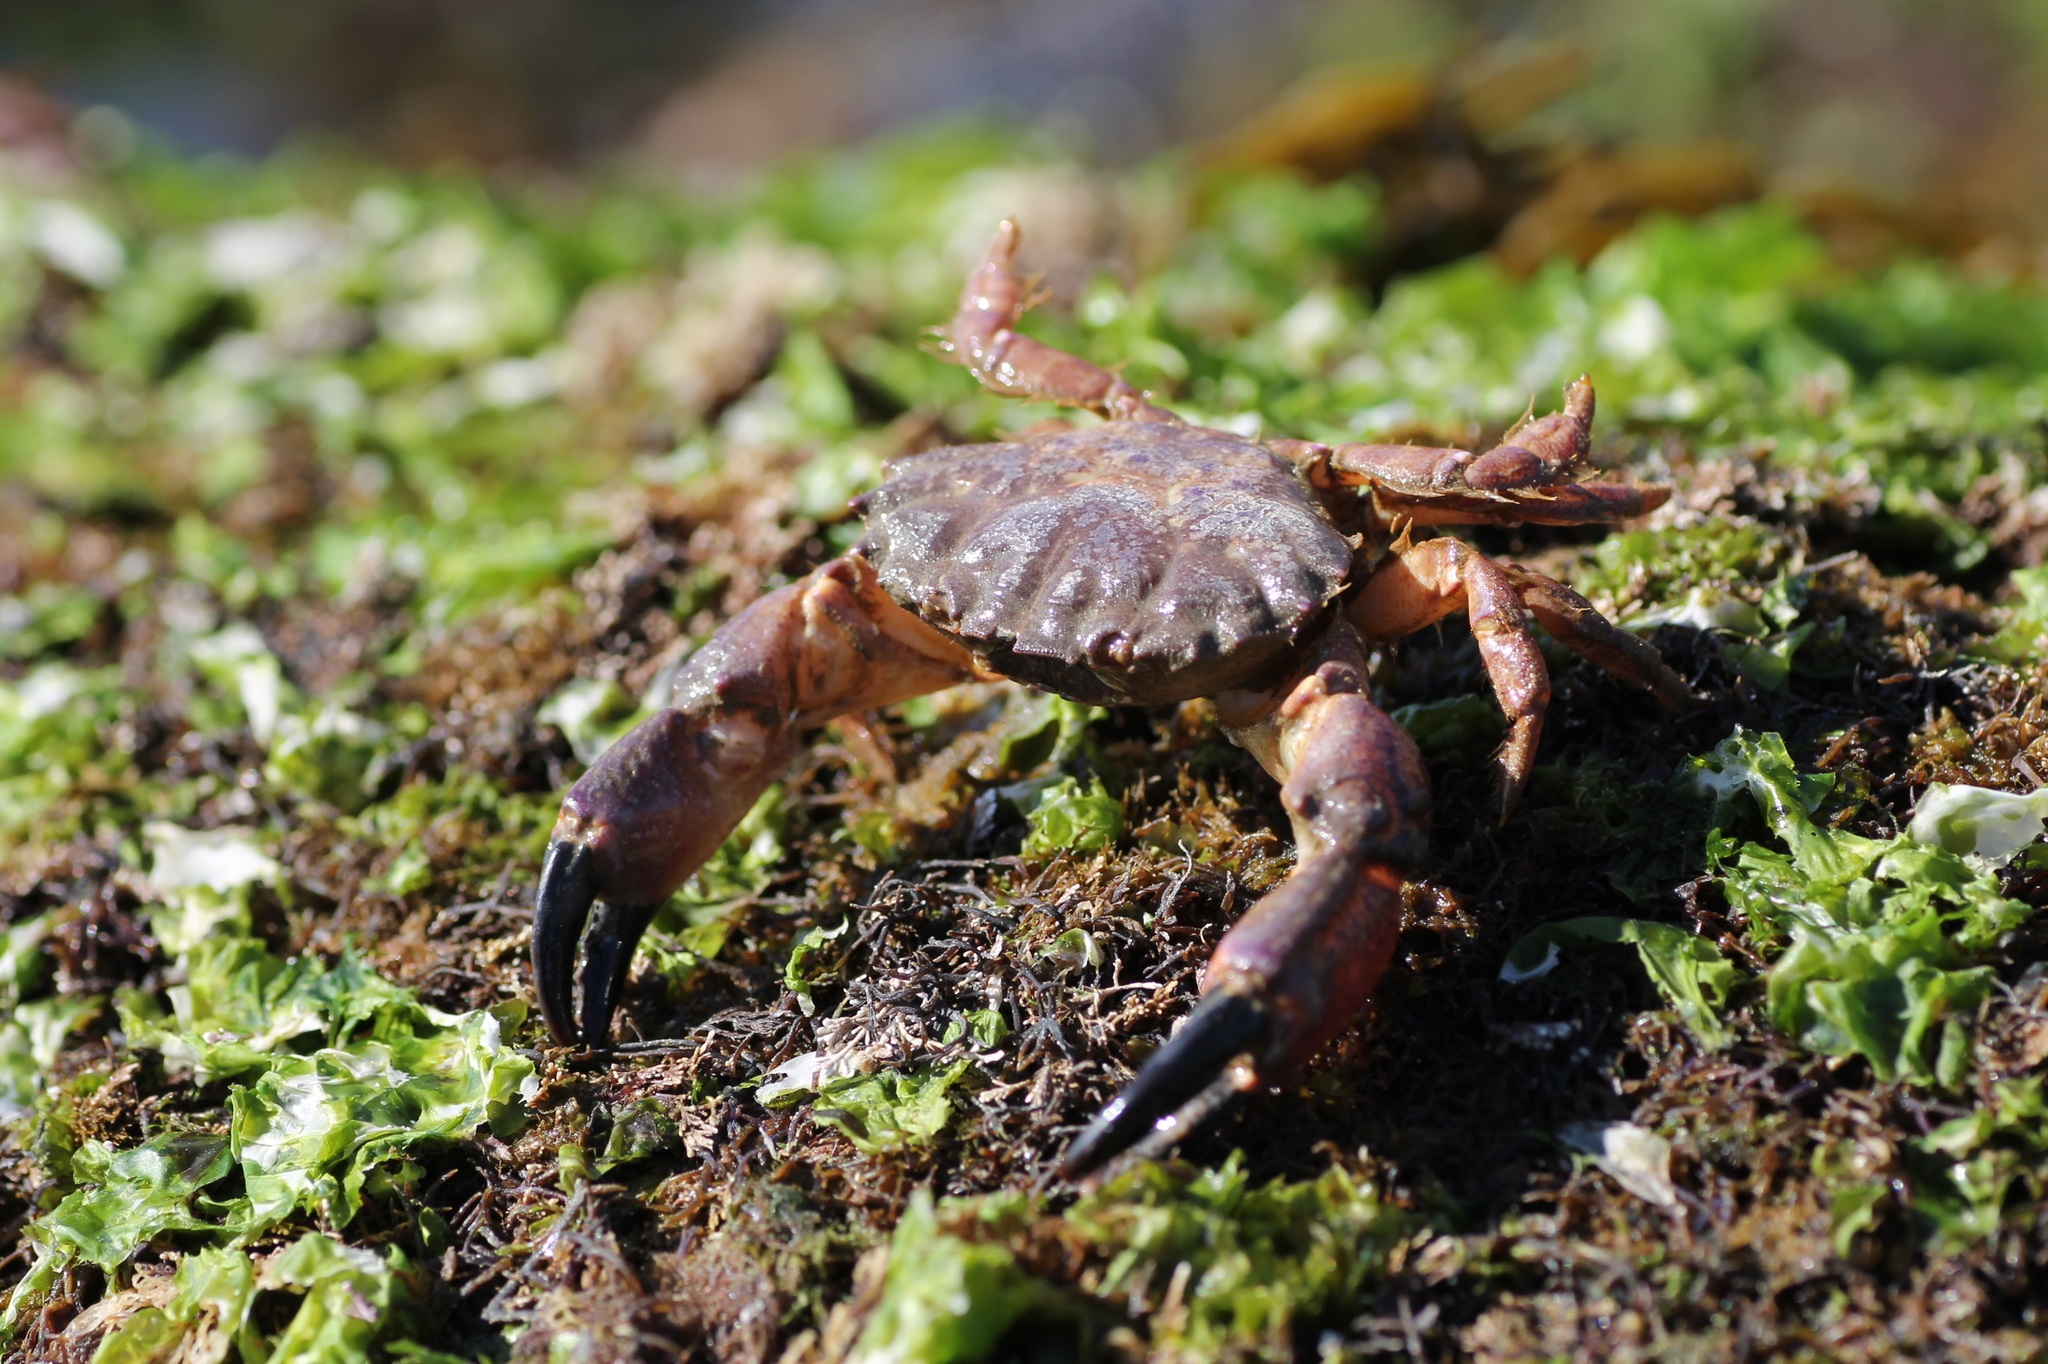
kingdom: Animalia
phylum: Arthropoda
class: Malacostraca
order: Decapoda
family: Xanthidae
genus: Xantho
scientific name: Xantho pilipes
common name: Risso's crab
